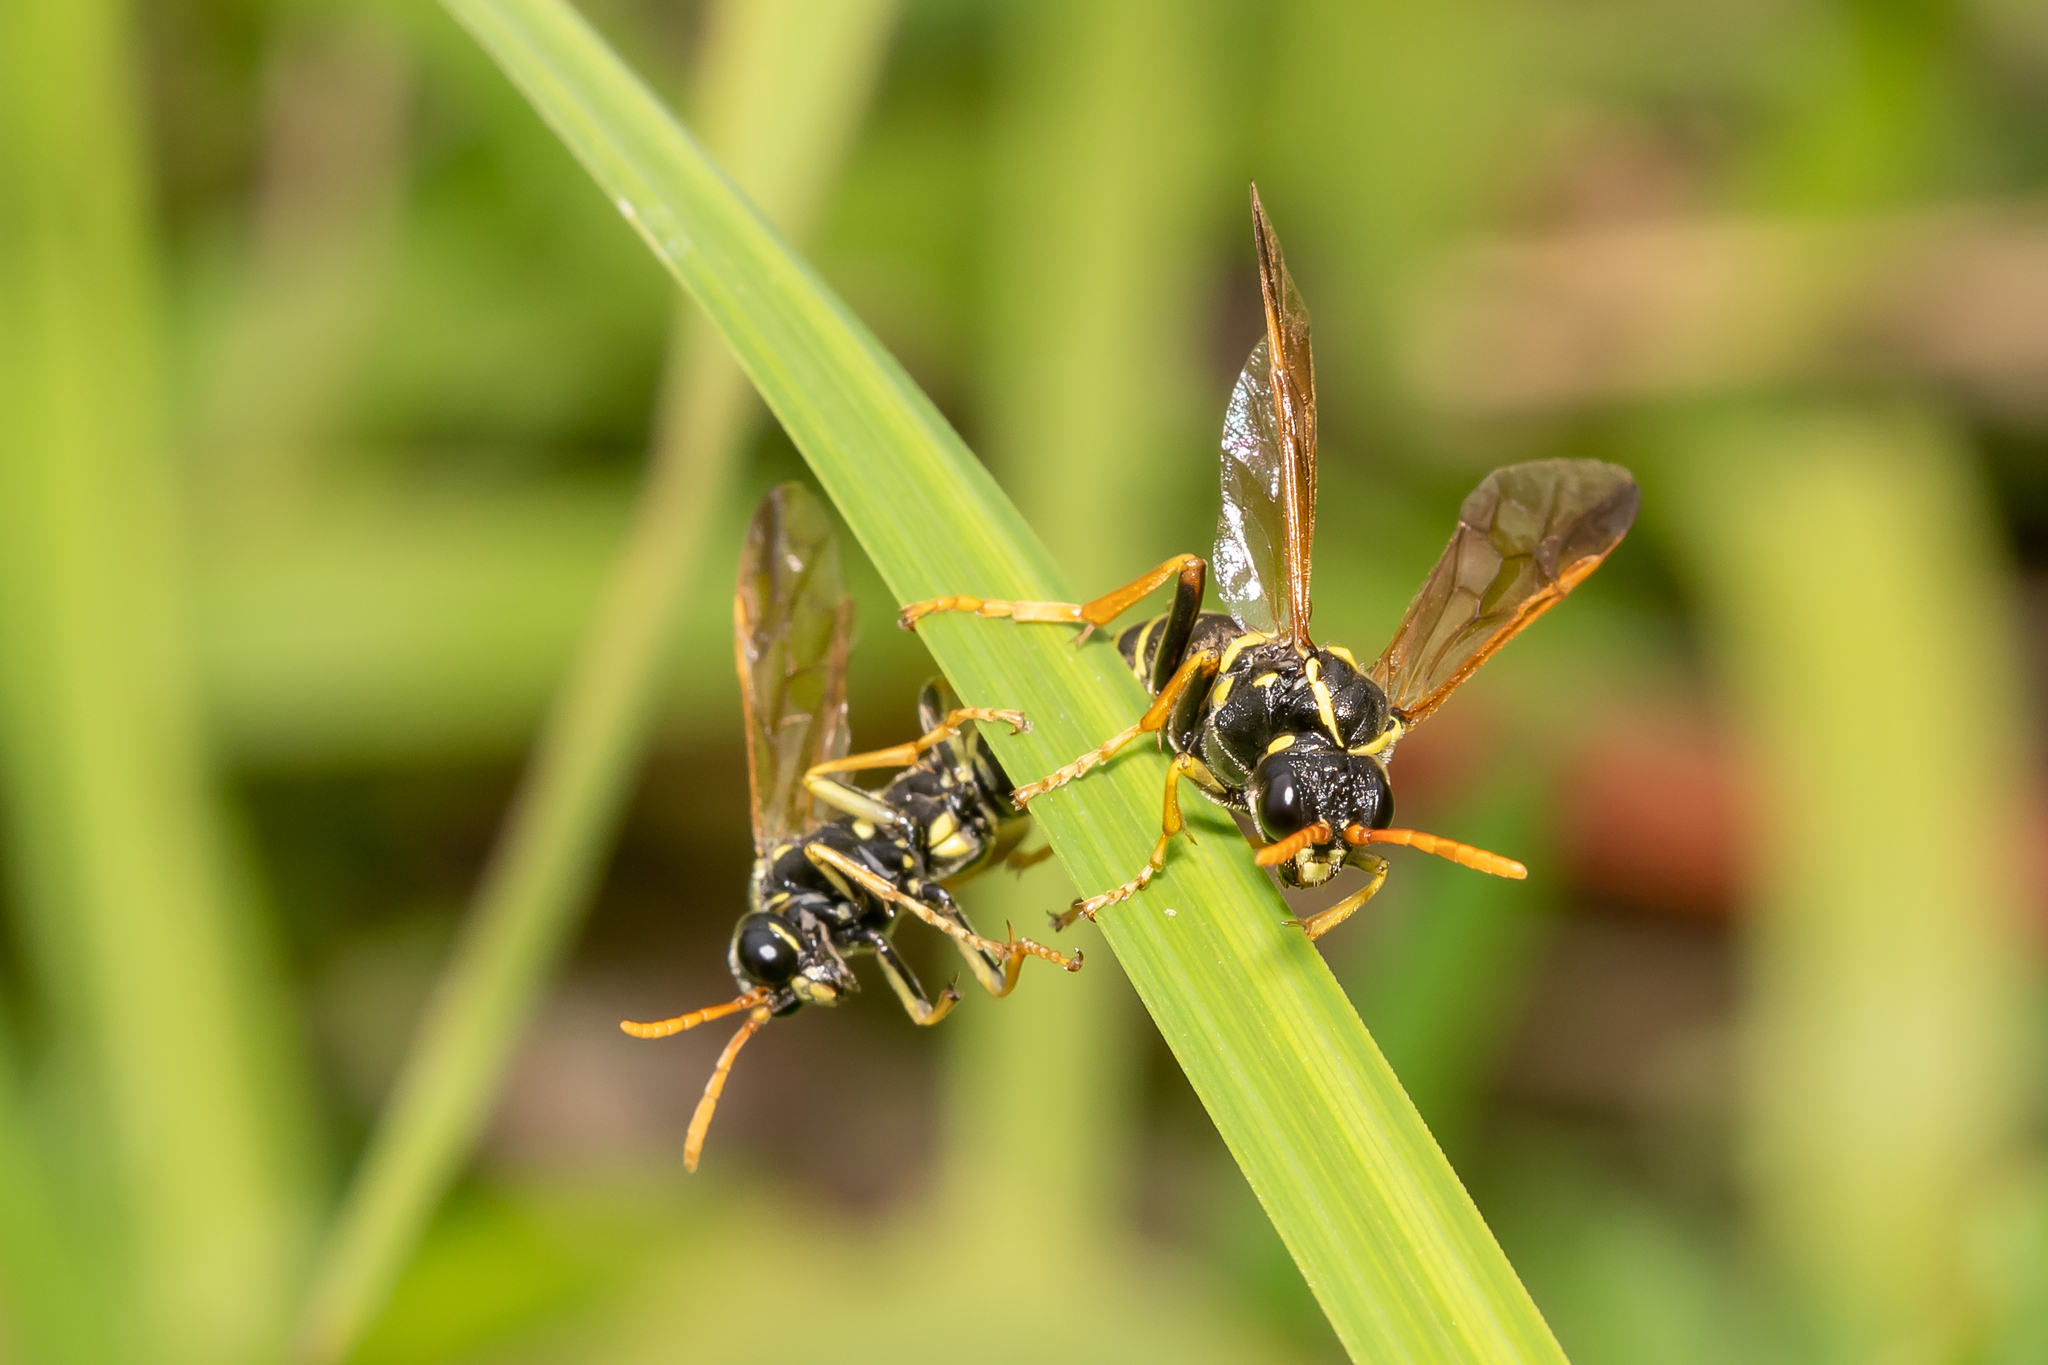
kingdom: Animalia
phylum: Arthropoda
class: Insecta
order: Hymenoptera
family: Tenthredinidae
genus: Tenthredo
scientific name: Tenthredo scrophulariae
